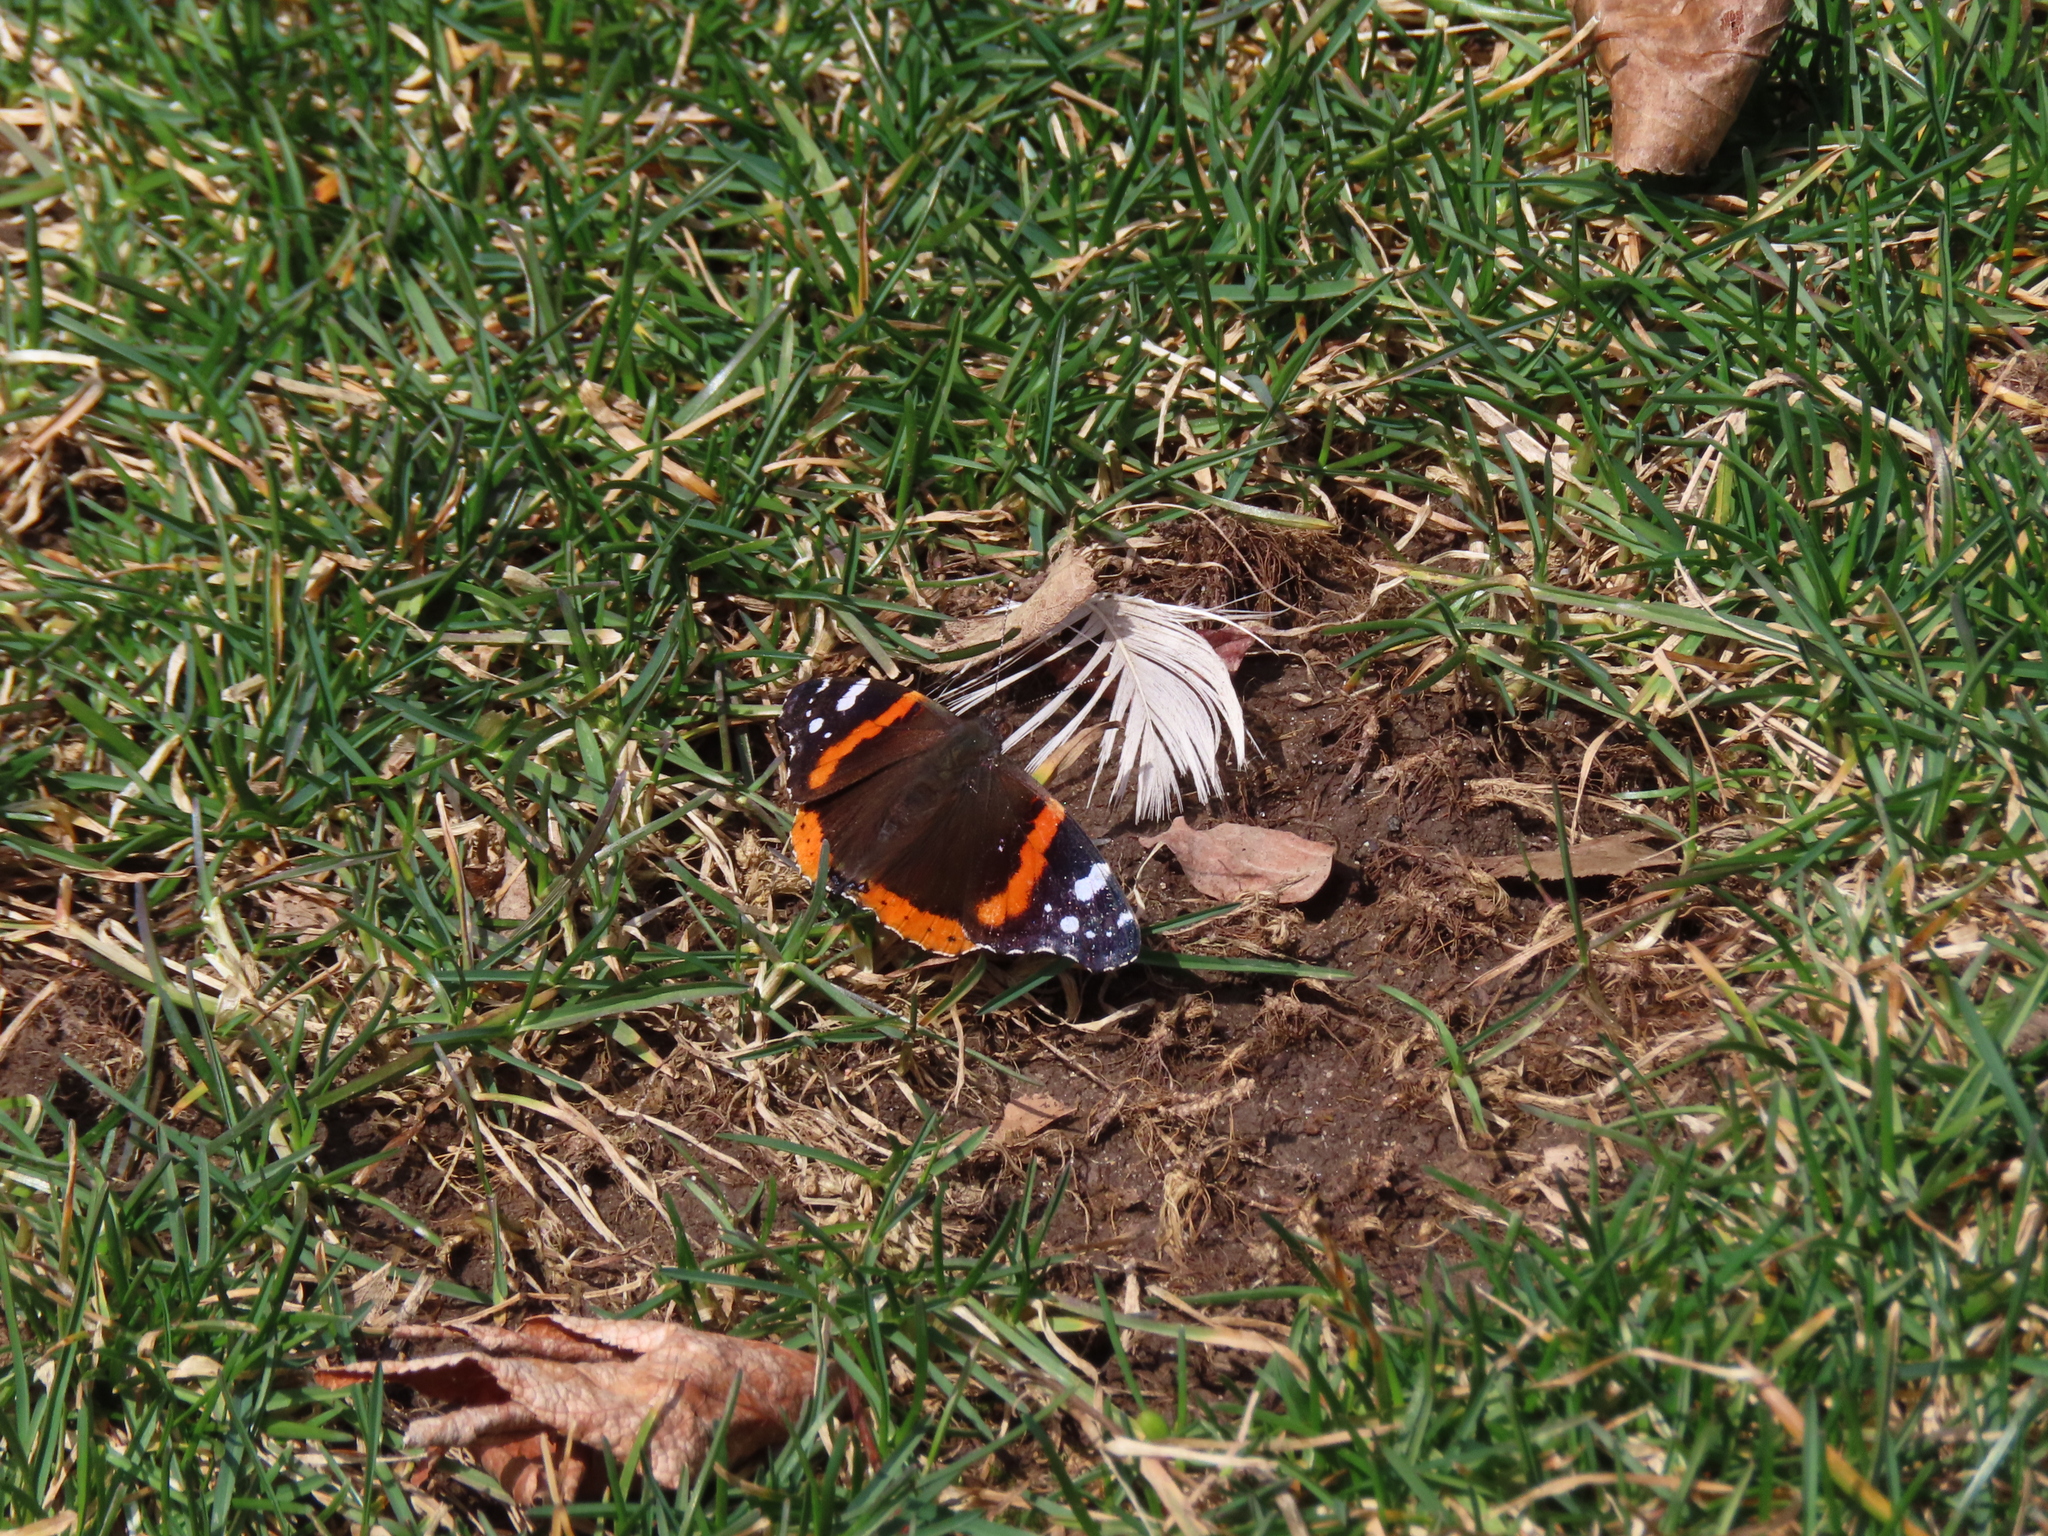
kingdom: Animalia
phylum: Arthropoda
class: Insecta
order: Lepidoptera
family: Nymphalidae
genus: Vanessa
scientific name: Vanessa atalanta
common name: Red admiral
